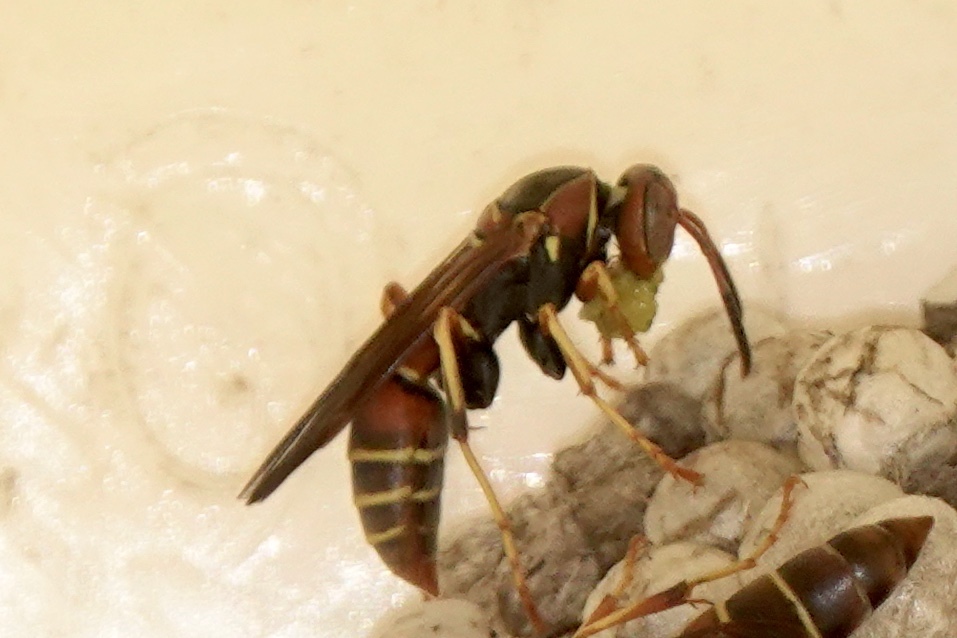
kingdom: Animalia
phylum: Arthropoda
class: Insecta
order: Hymenoptera
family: Eumenidae
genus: Polistes
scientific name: Polistes dorsalis
